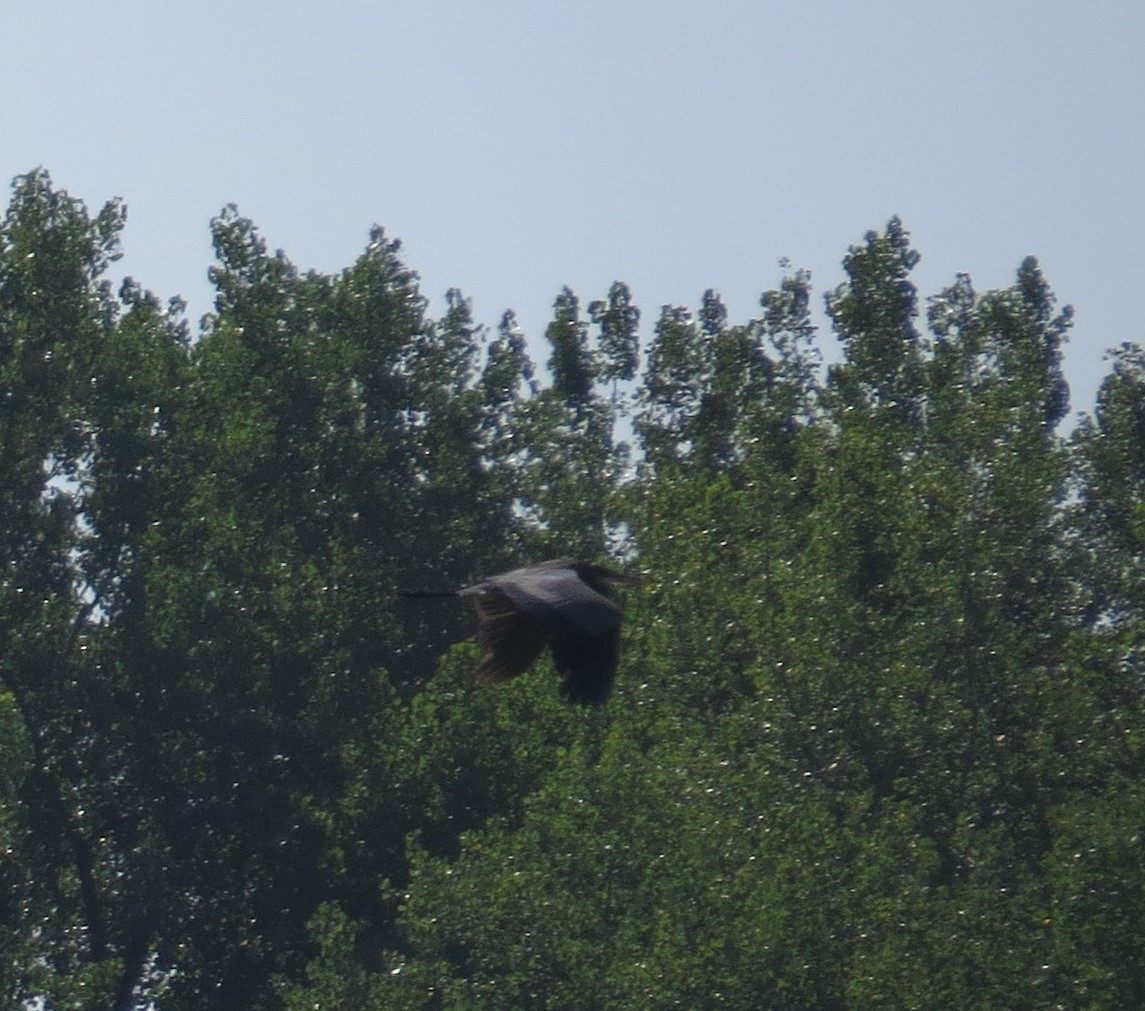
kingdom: Animalia
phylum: Chordata
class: Aves
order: Pelecaniformes
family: Ardeidae
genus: Ardea
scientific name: Ardea herodias
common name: Great blue heron
